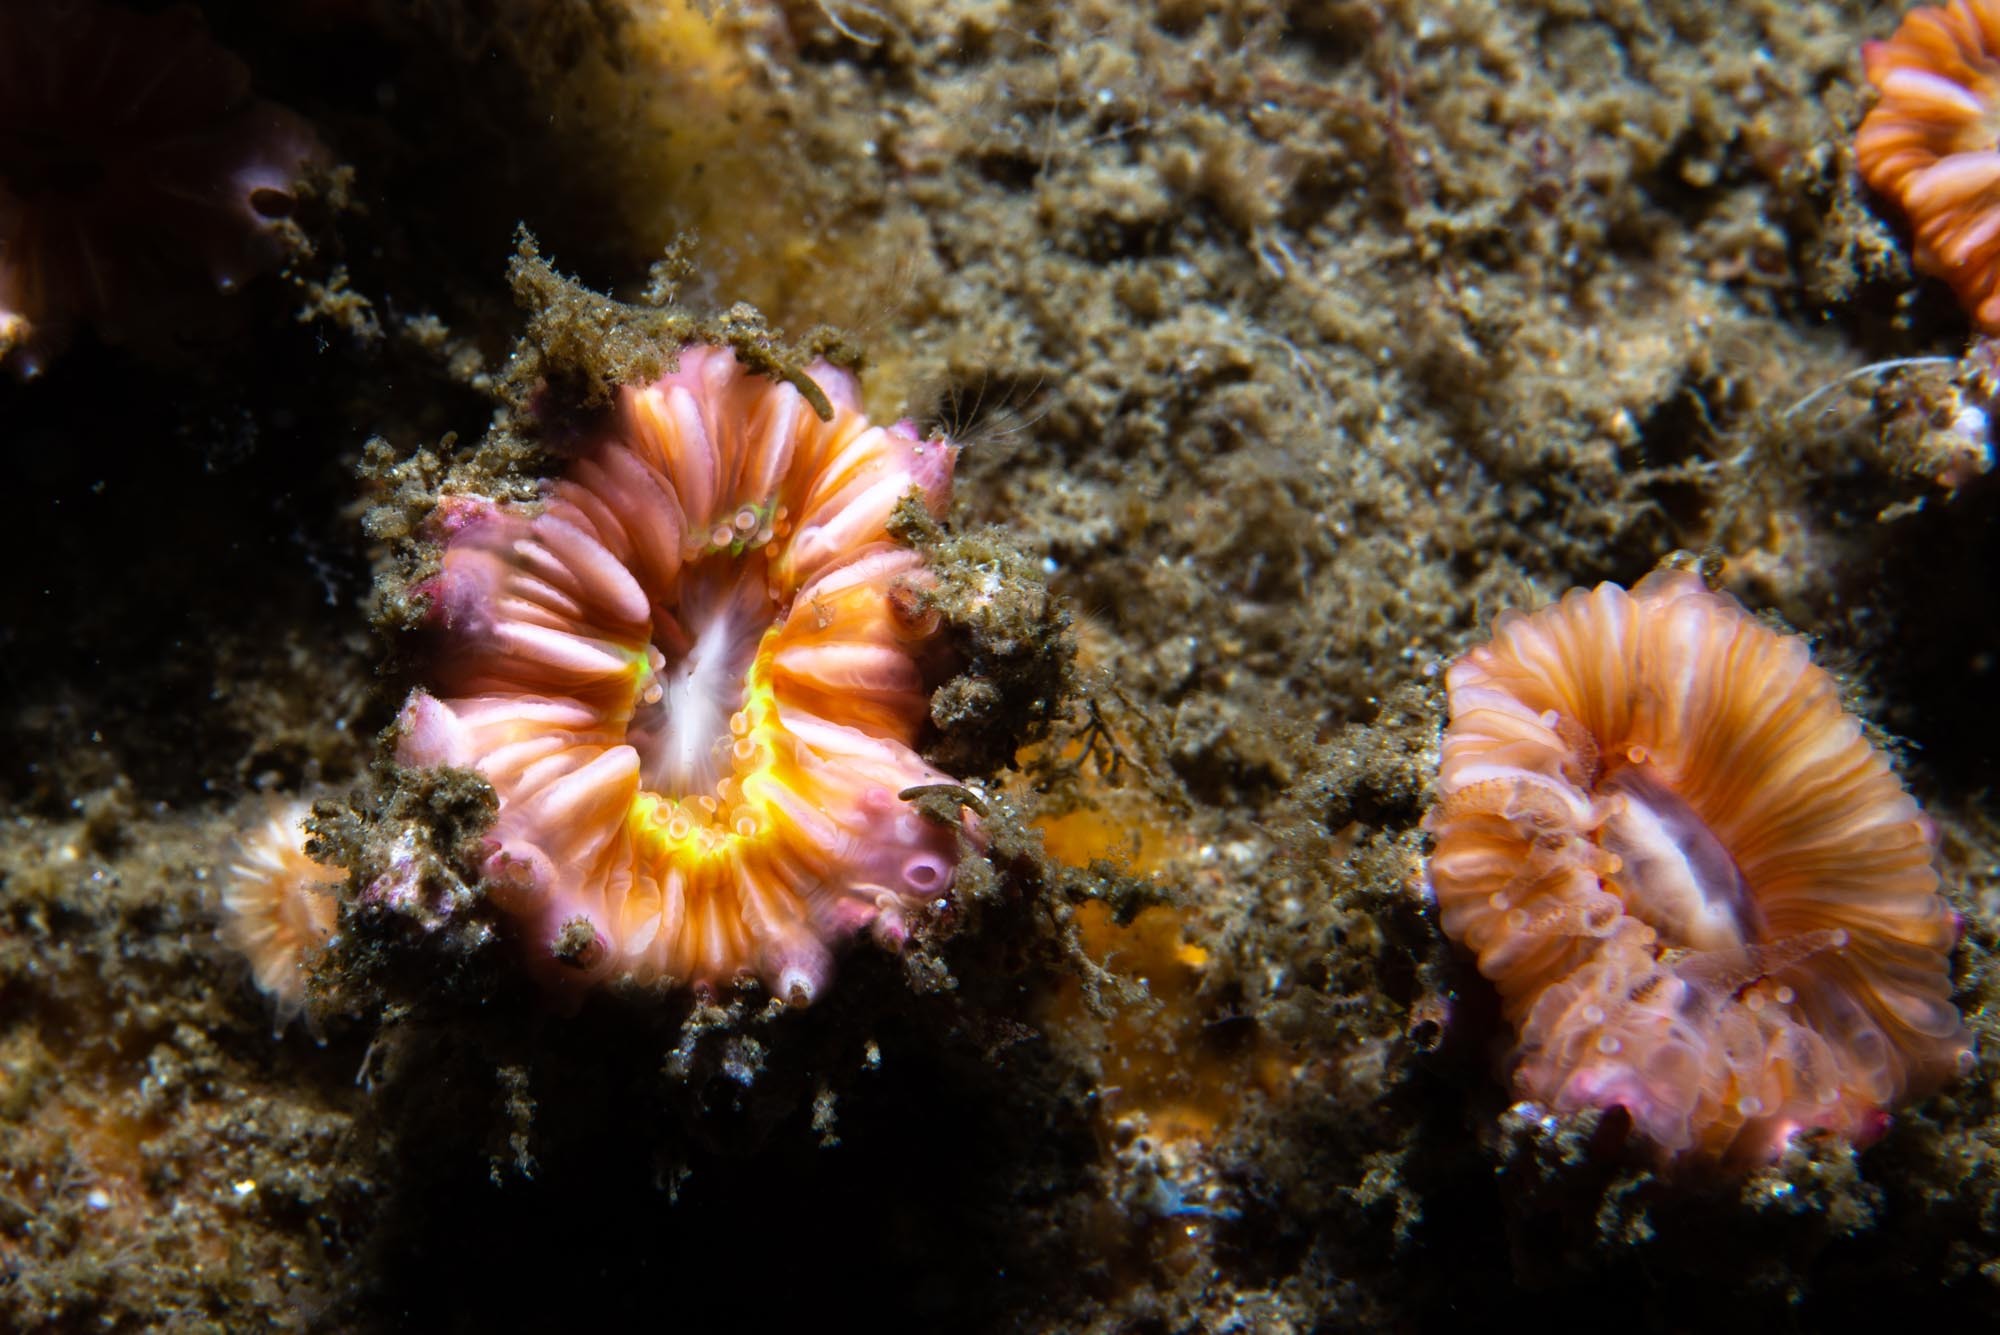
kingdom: Animalia
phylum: Arthropoda
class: Maxillopoda
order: Sessilia
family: Pyrgomatidae
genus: Adna
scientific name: Adna anglica
